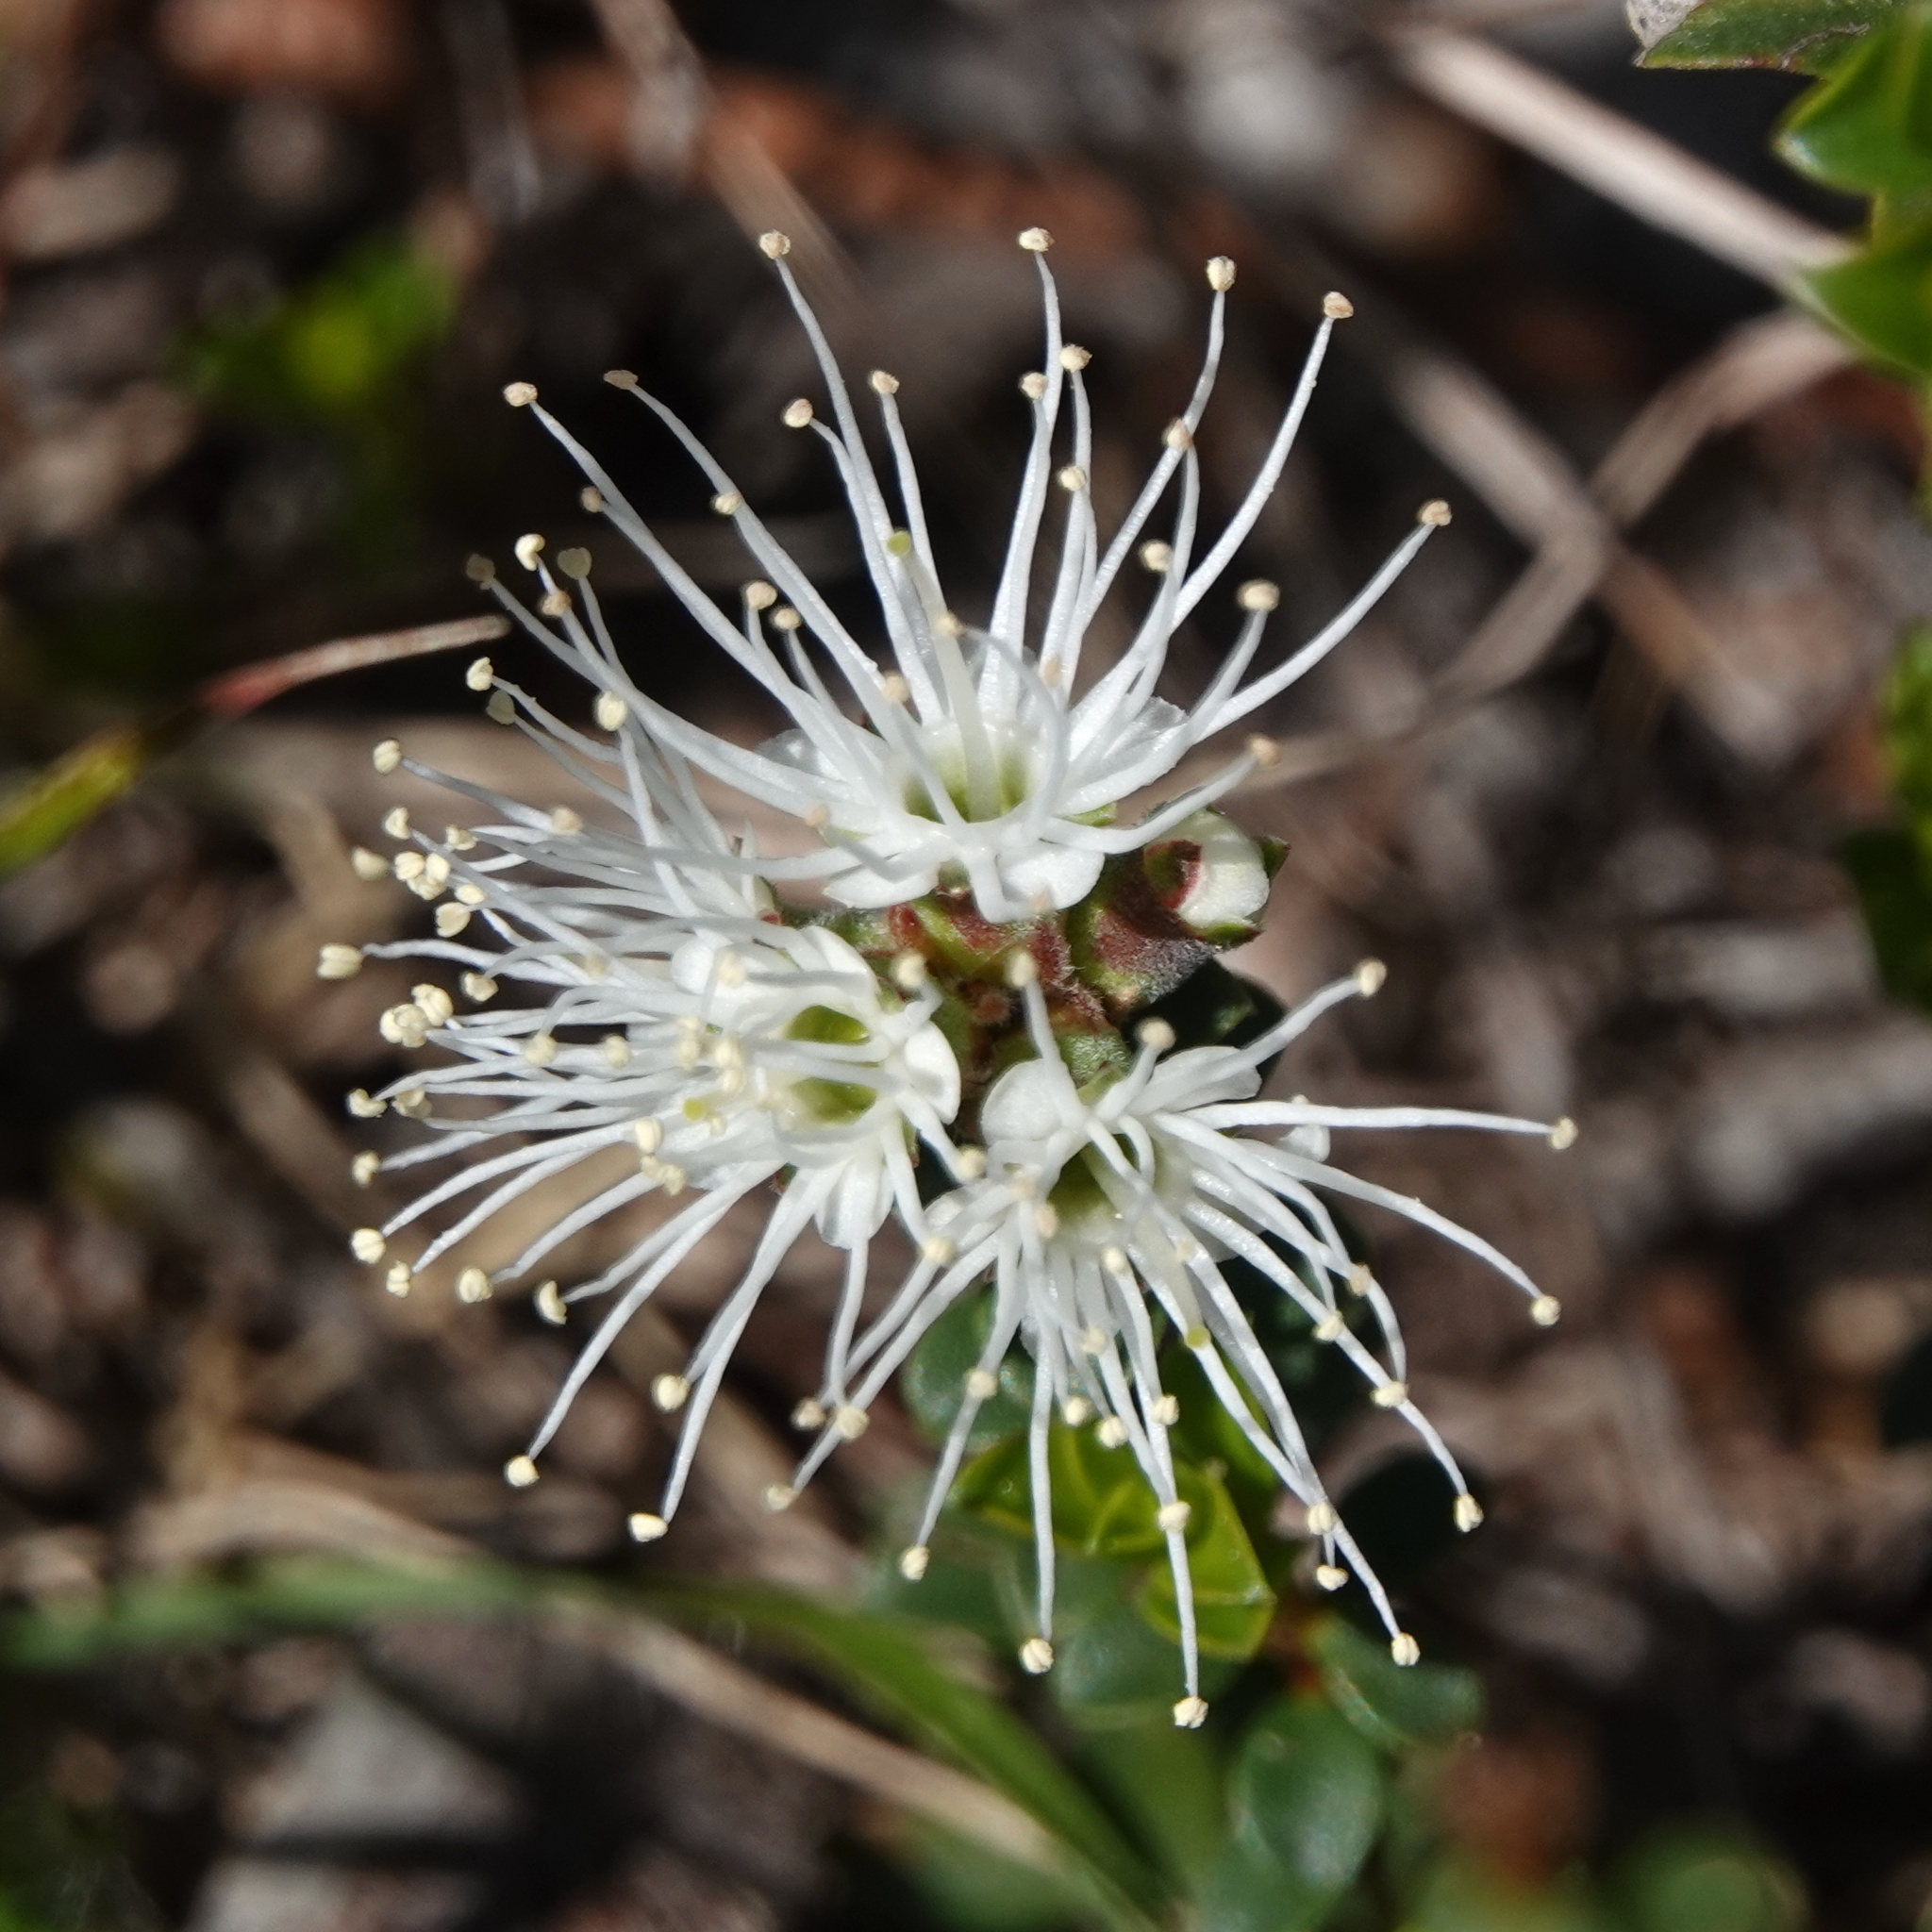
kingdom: Plantae
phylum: Tracheophyta
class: Magnoliopsida
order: Myrtales
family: Myrtaceae
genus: Kunzea
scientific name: Kunzea pomifera
